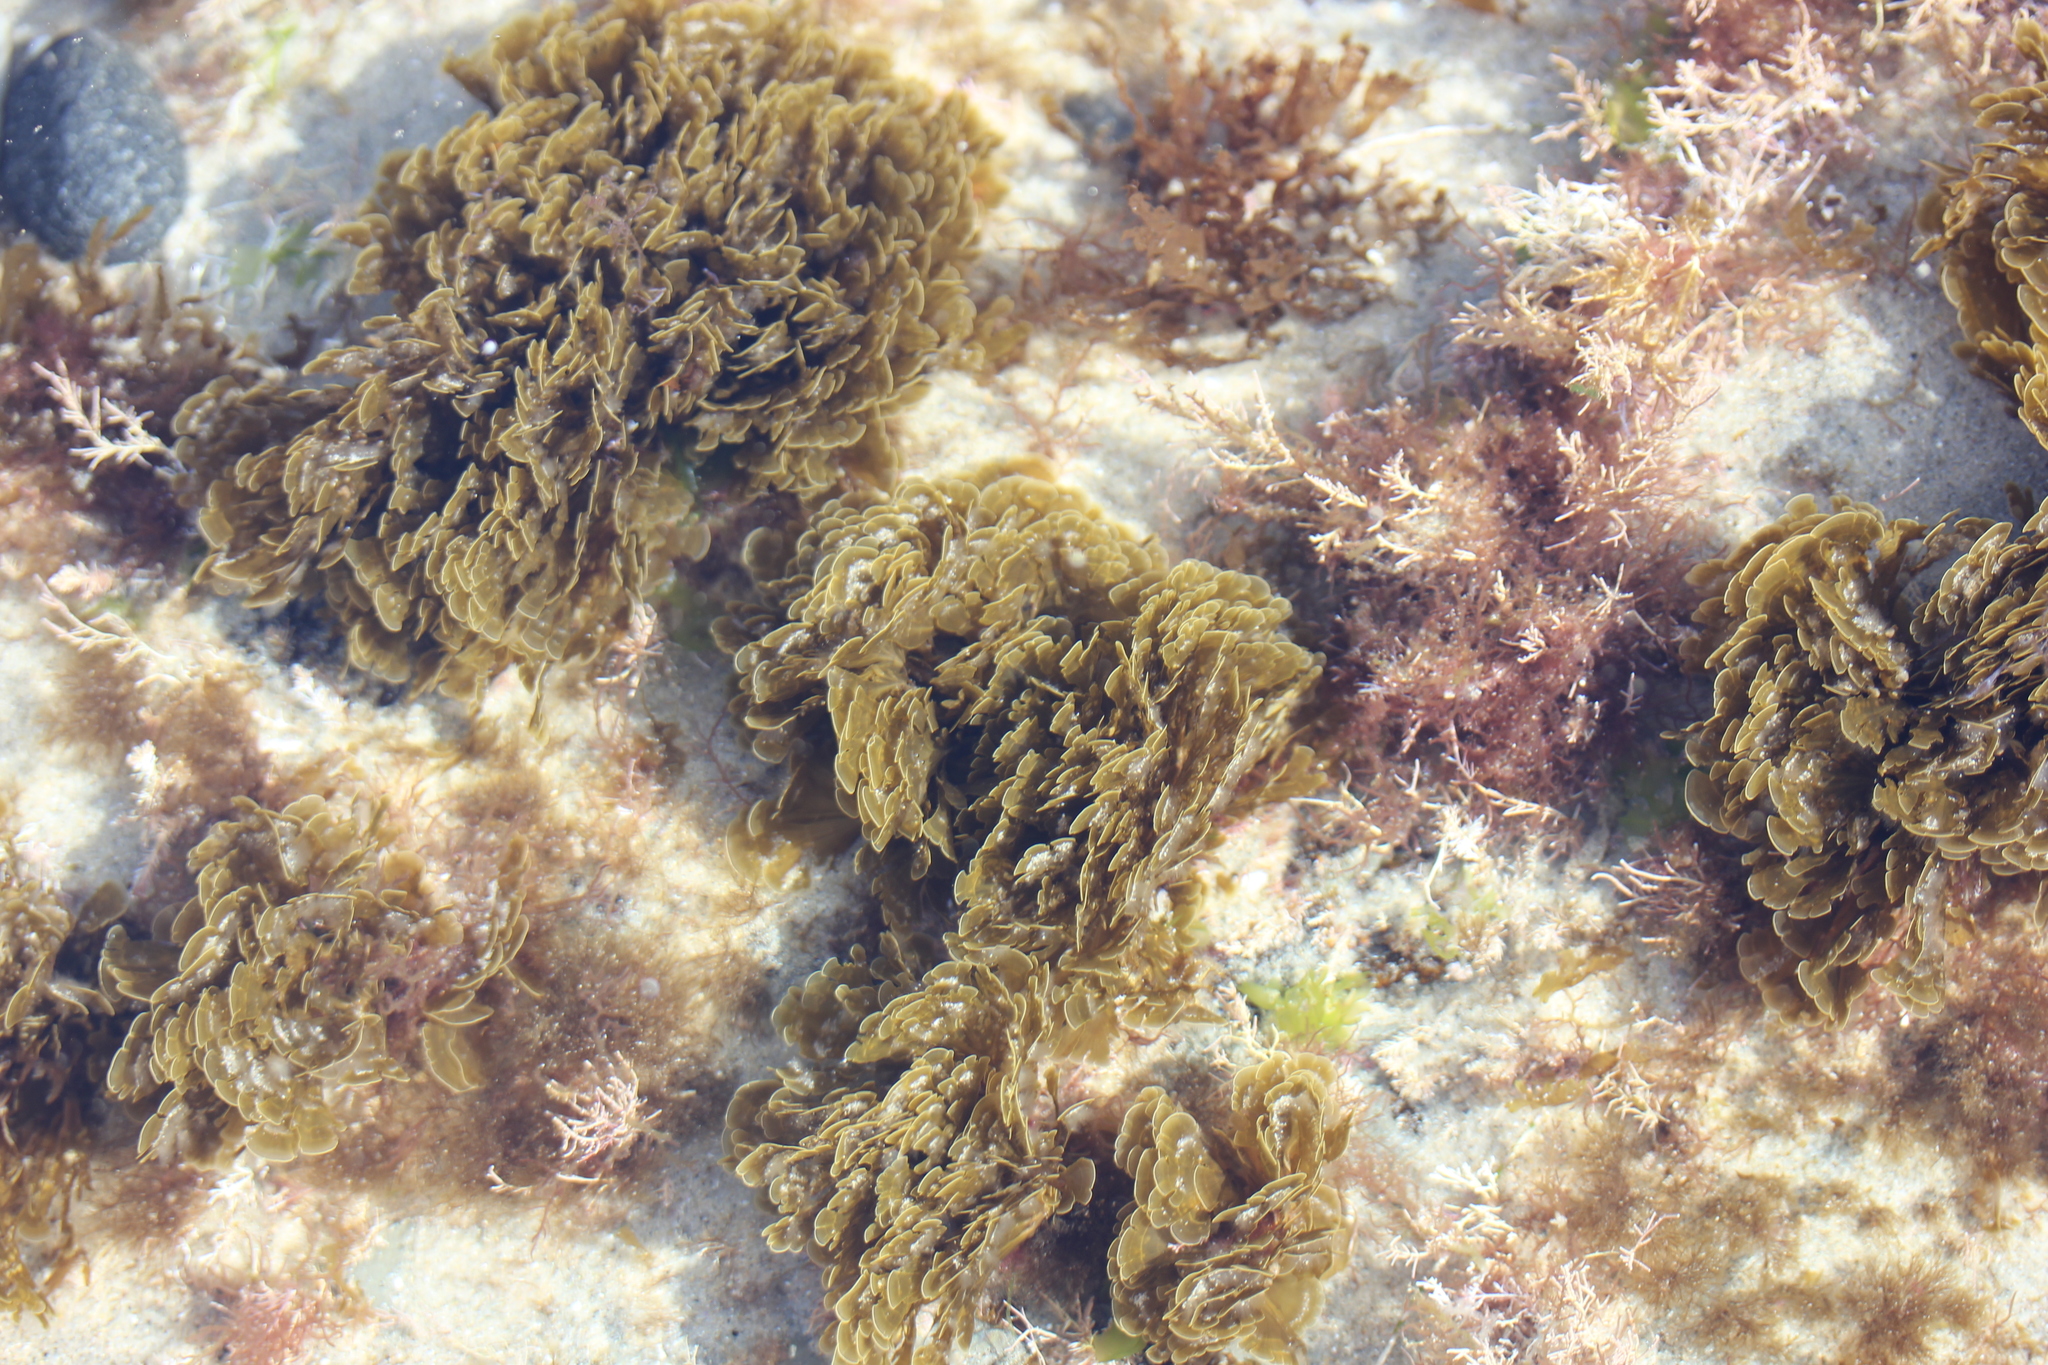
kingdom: Chromista
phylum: Ochrophyta
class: Phaeophyceae
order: Dictyotales
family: Dictyotaceae
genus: Zonaria
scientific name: Zonaria farlowii
